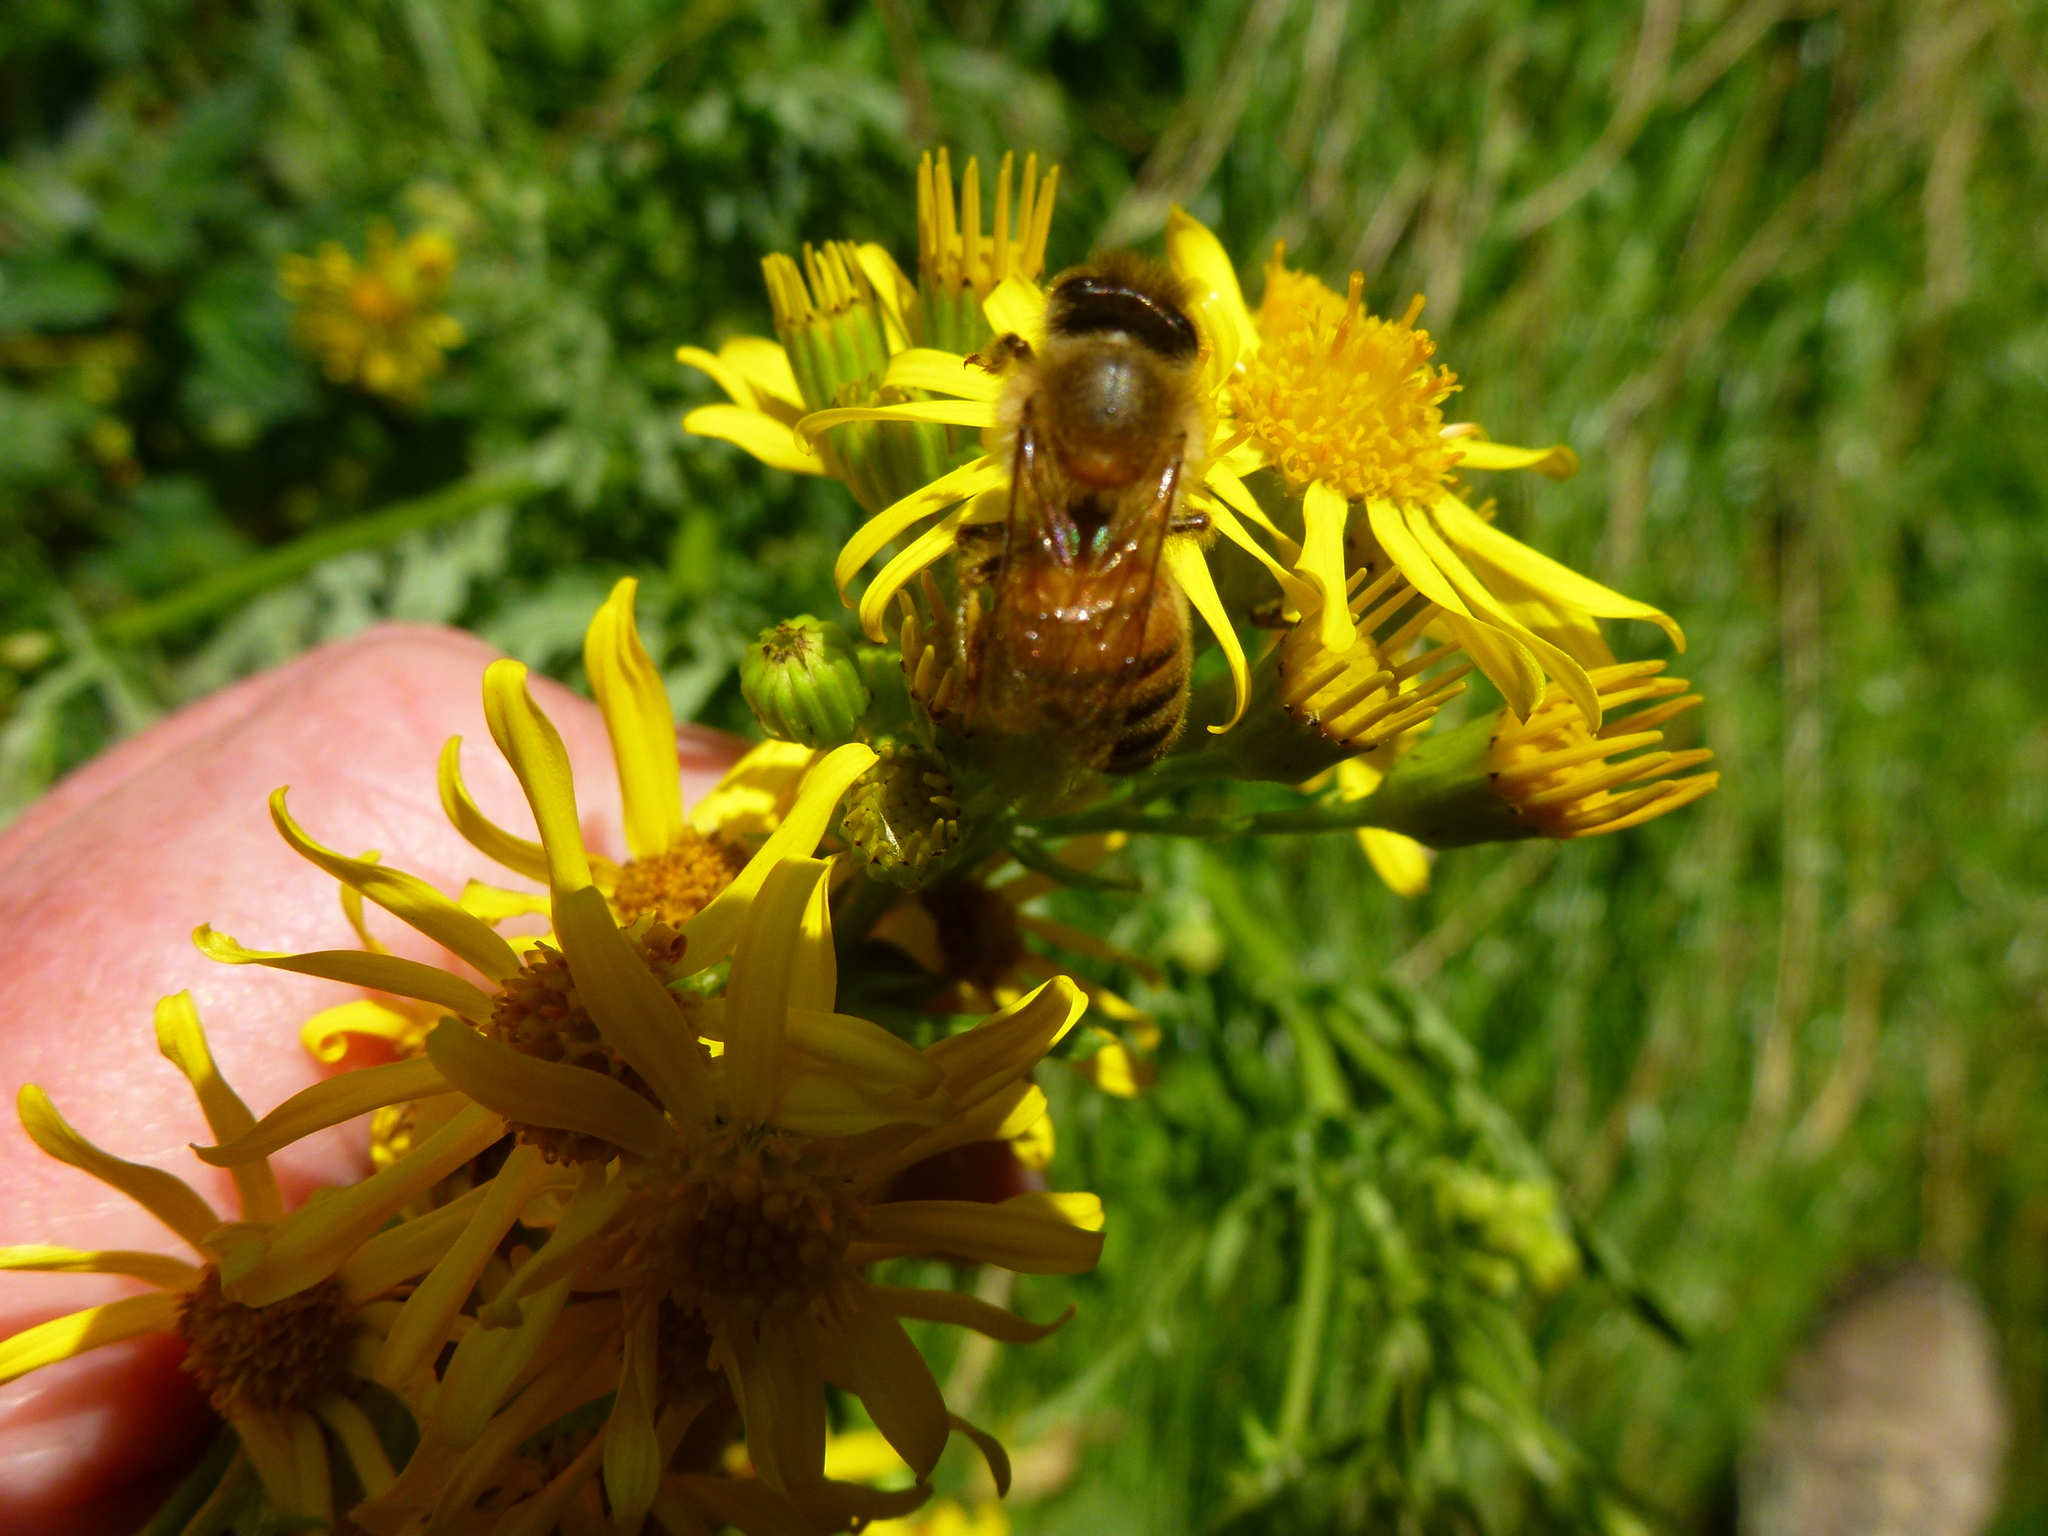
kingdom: Animalia
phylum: Arthropoda
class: Insecta
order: Hymenoptera
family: Apidae
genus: Apis
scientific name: Apis mellifera
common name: Honey bee
